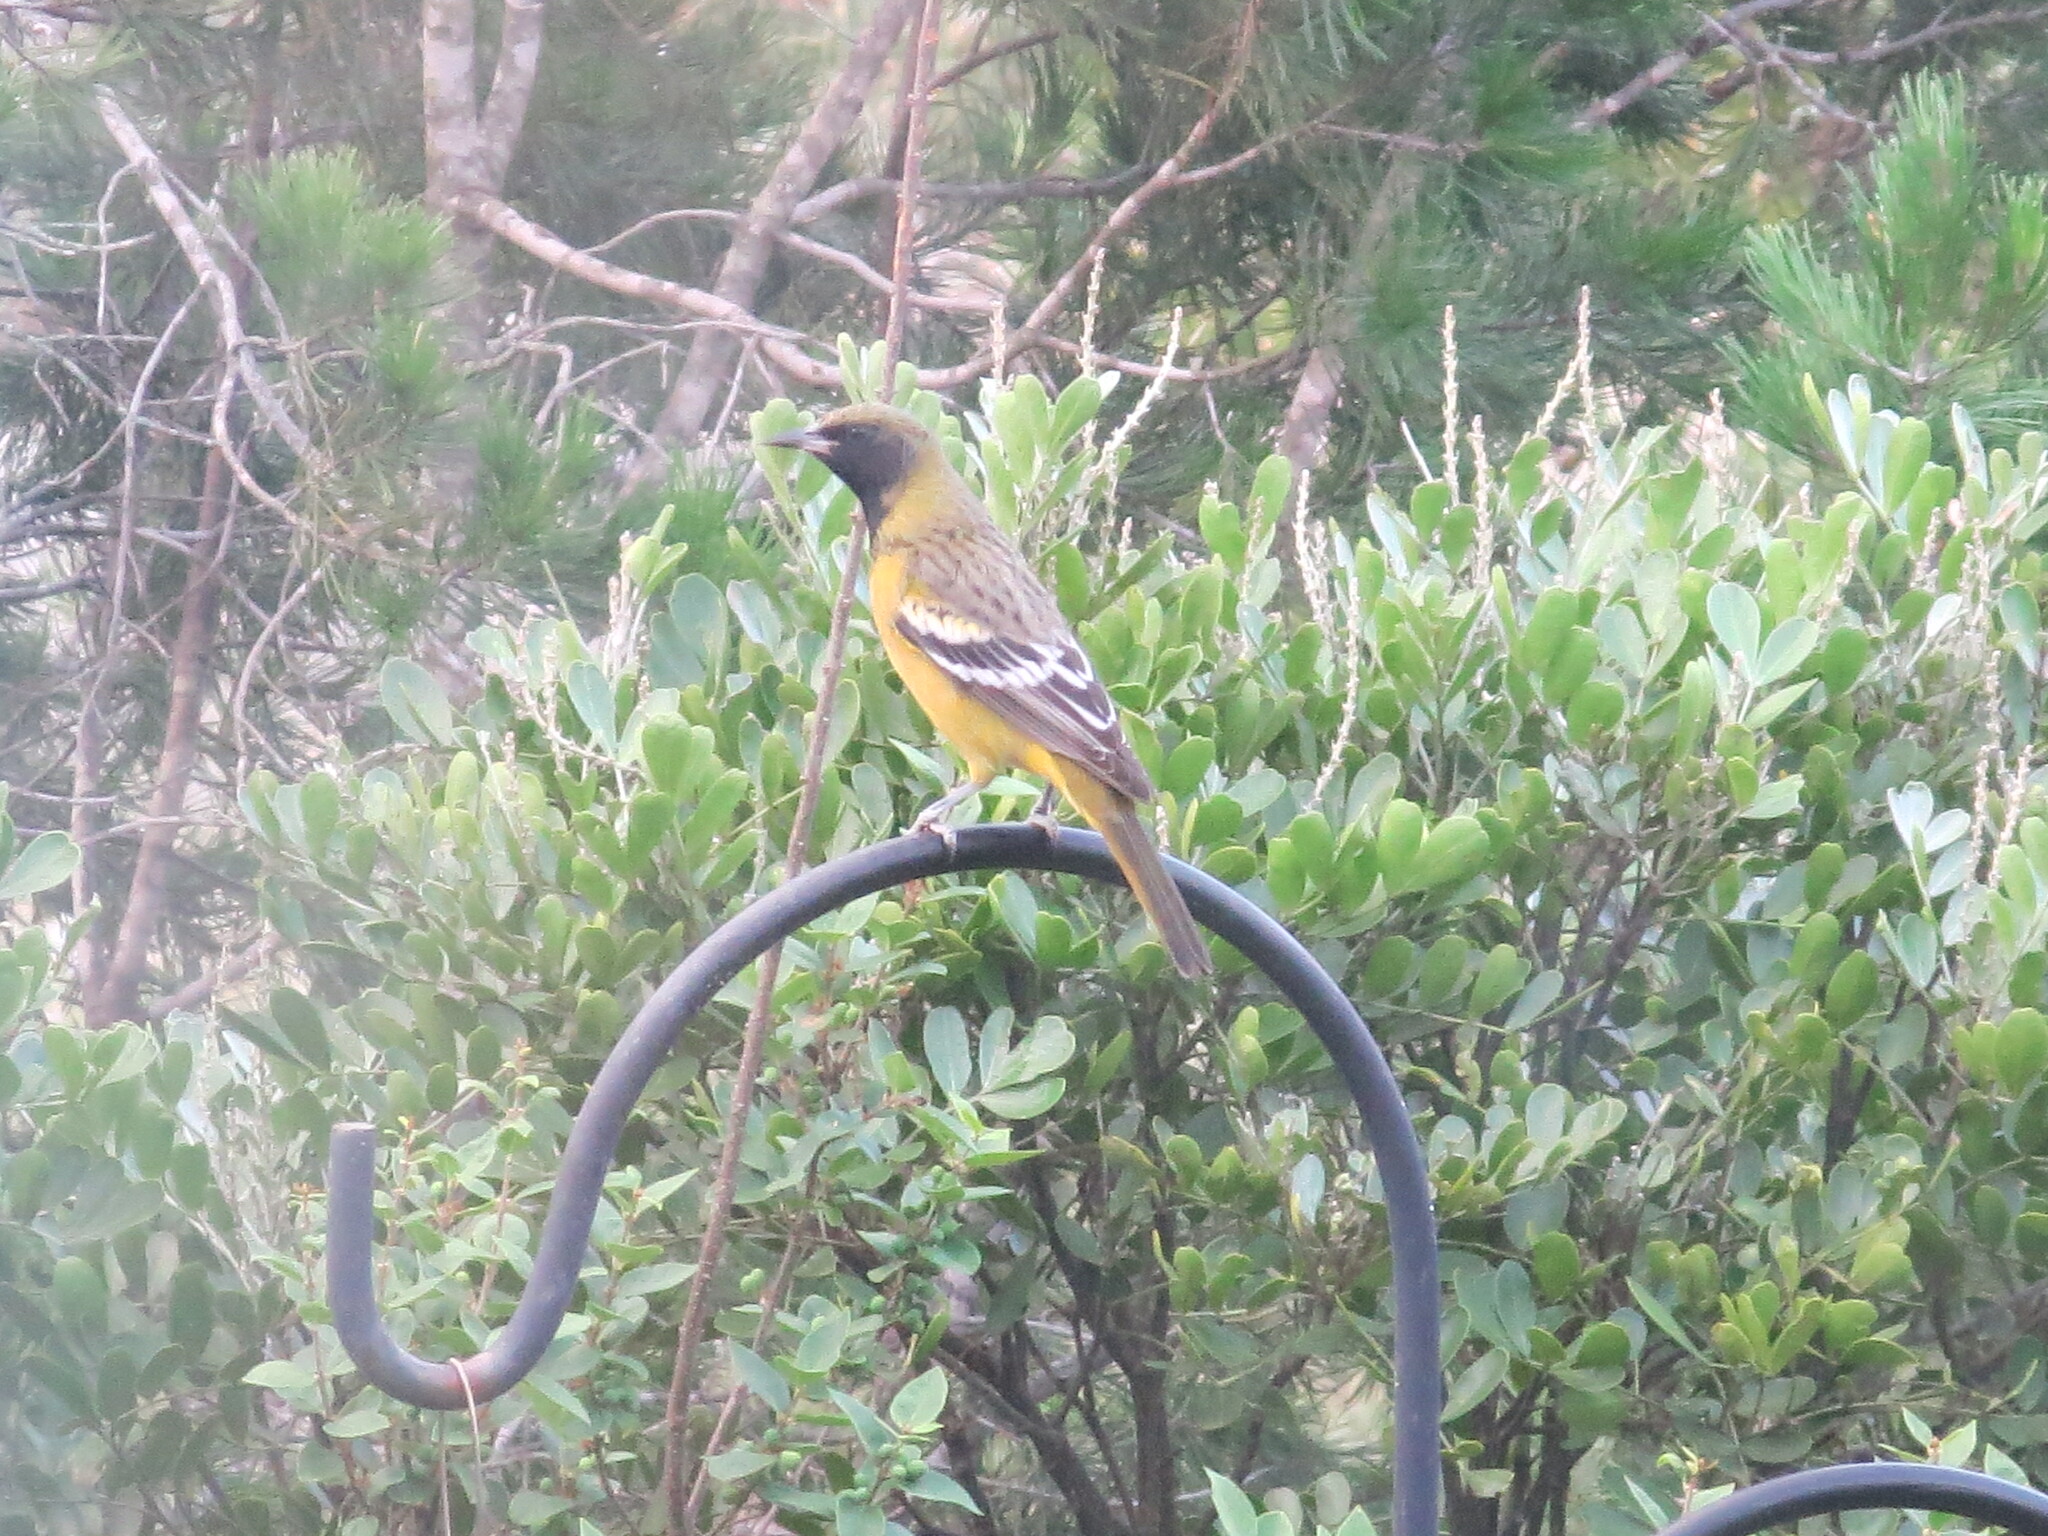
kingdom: Animalia
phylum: Chordata
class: Aves
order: Passeriformes
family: Icteridae
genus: Icterus
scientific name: Icterus parisorum
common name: Scott's oriole
